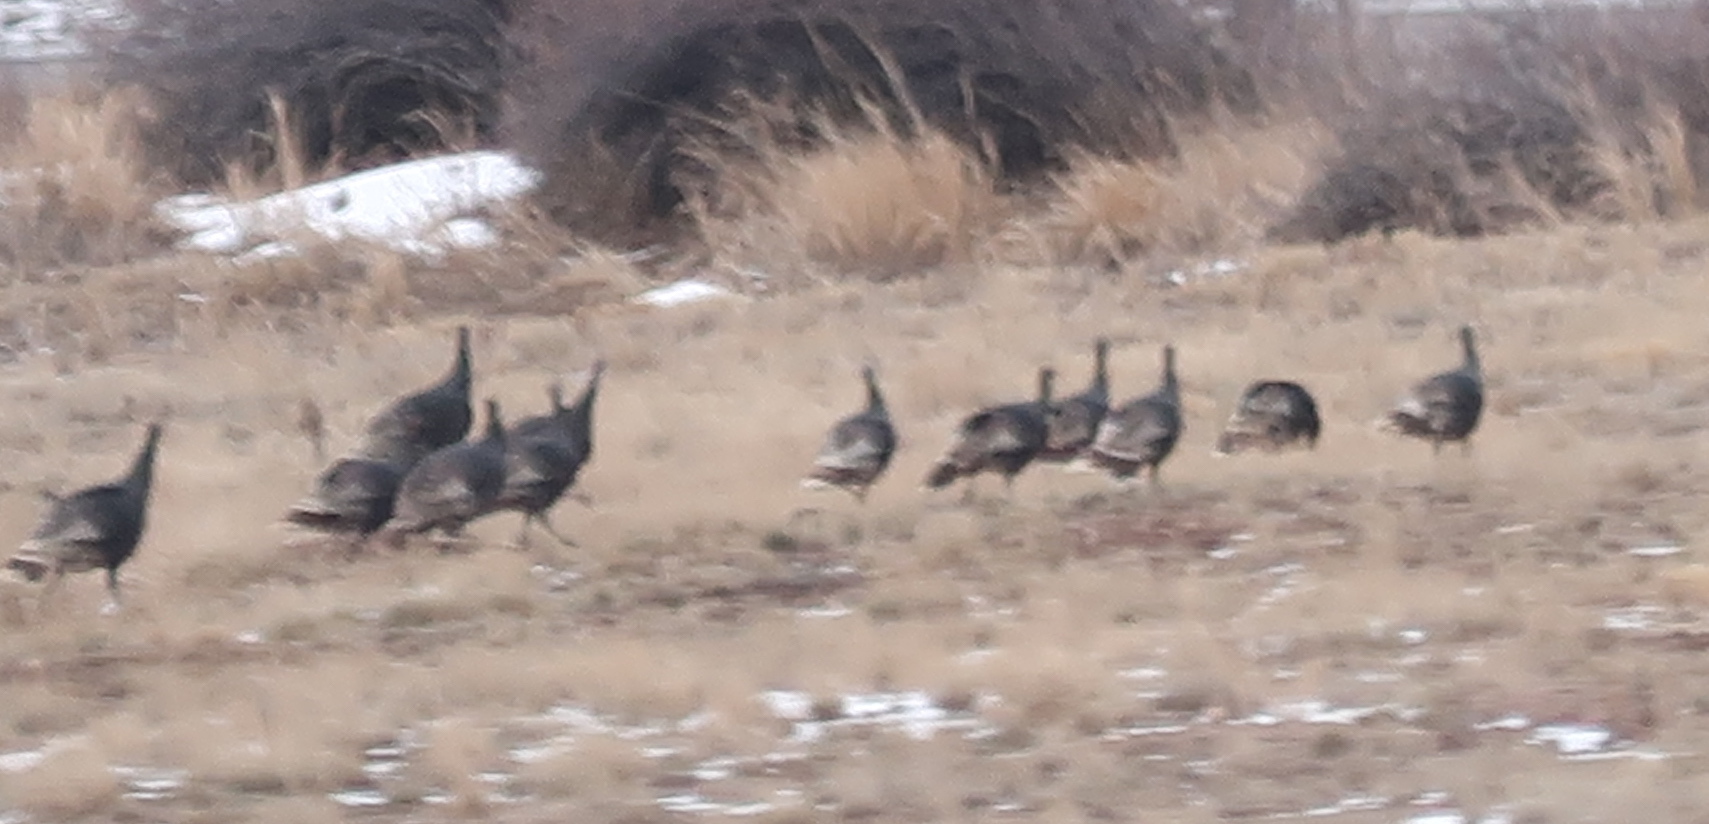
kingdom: Animalia
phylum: Chordata
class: Aves
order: Galliformes
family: Phasianidae
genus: Meleagris
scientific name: Meleagris gallopavo
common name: Wild turkey
